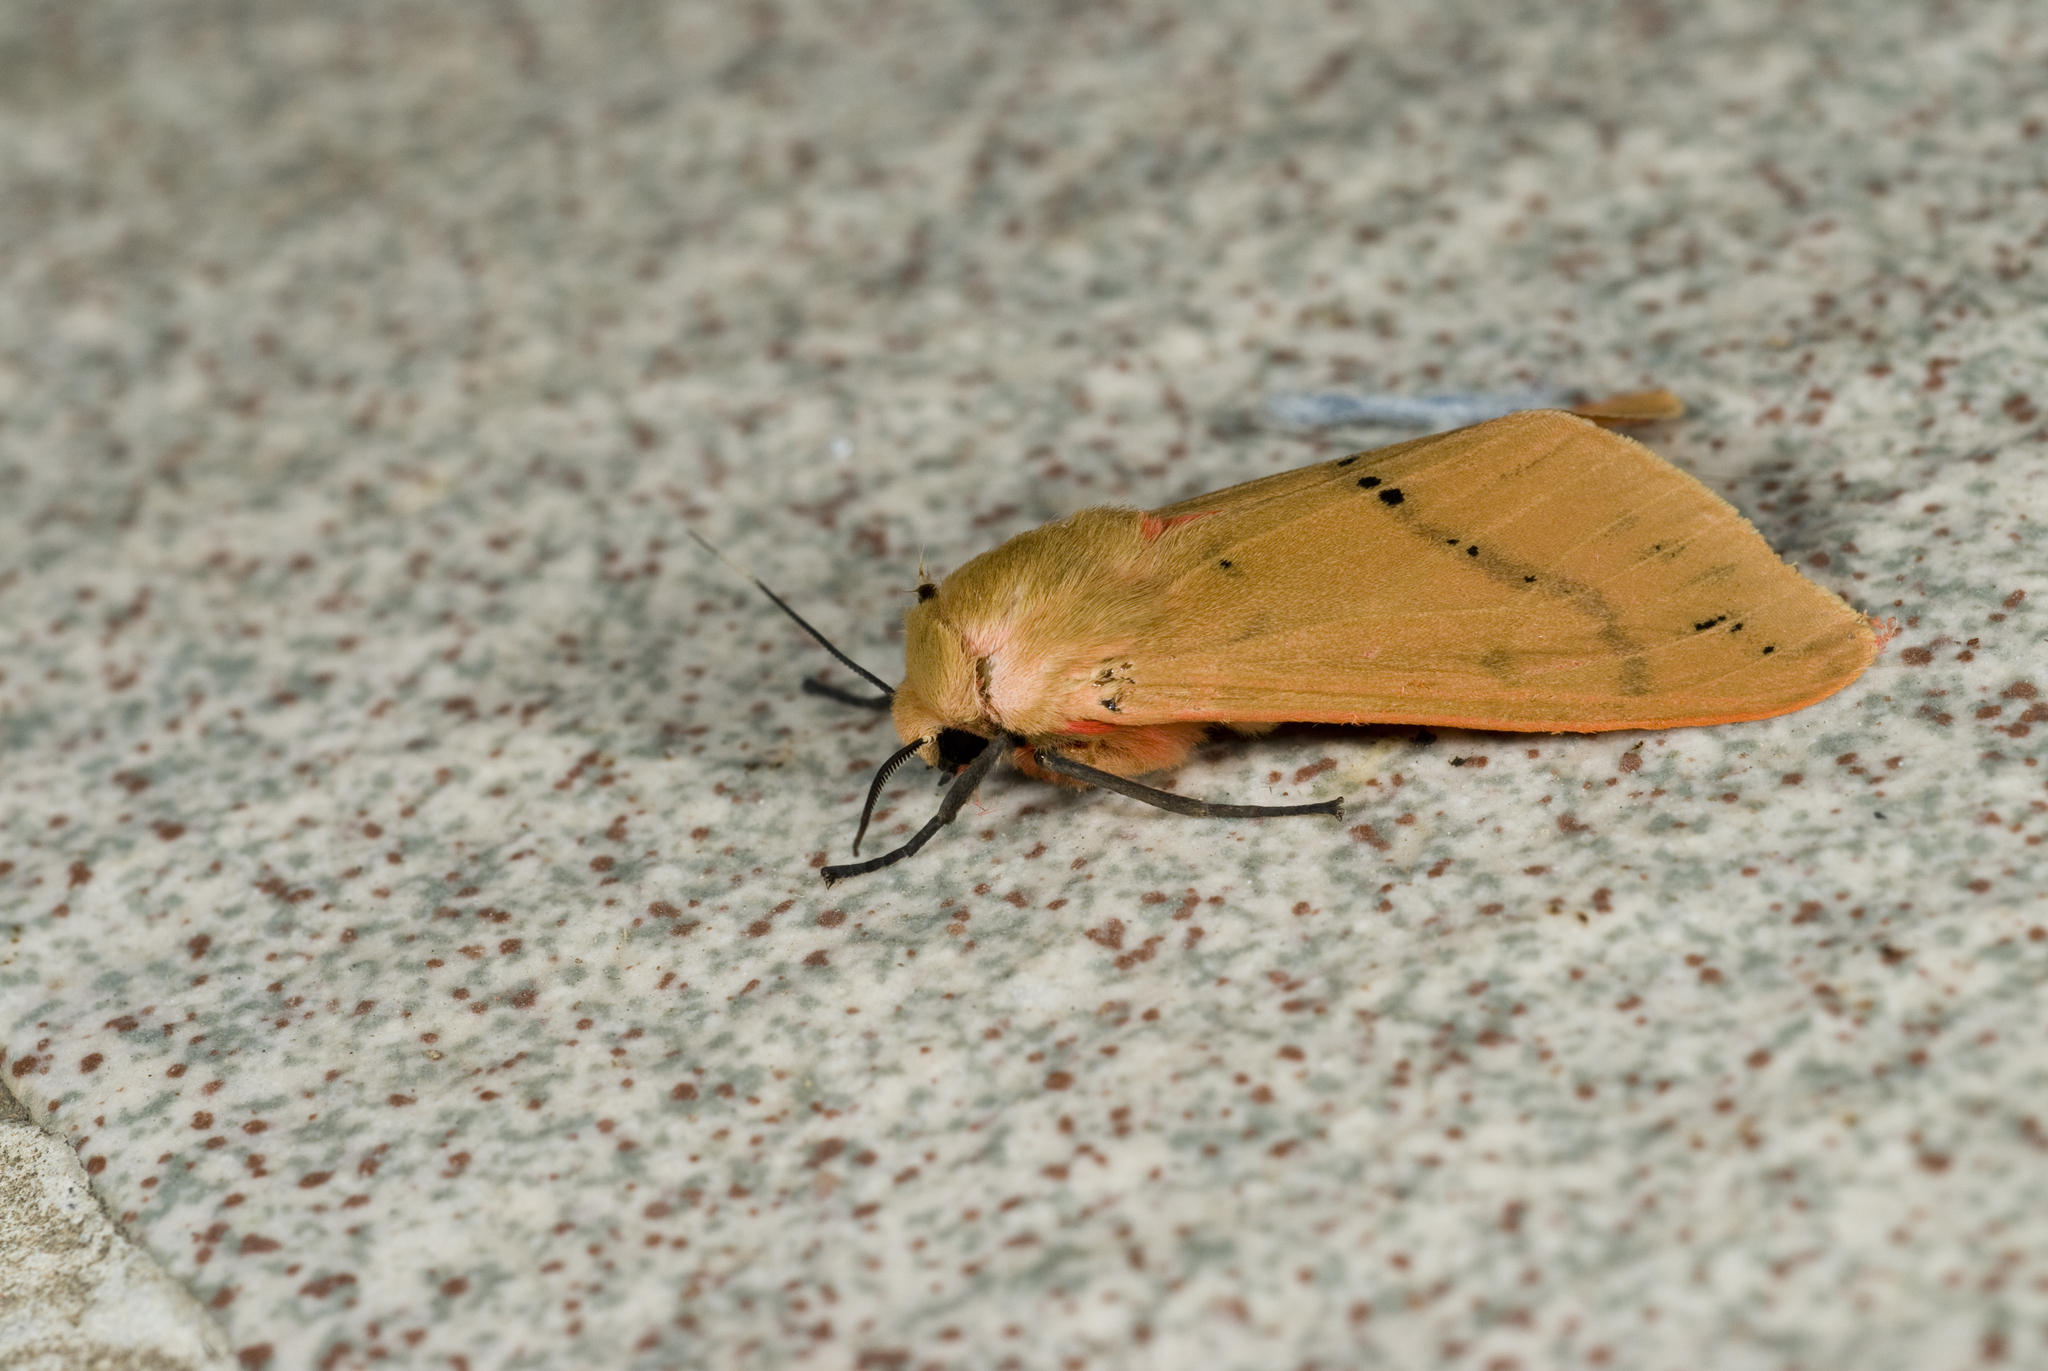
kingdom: Animalia
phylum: Arthropoda
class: Insecta
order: Lepidoptera
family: Erebidae
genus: Spilarctia
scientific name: Spilarctia wilemani
